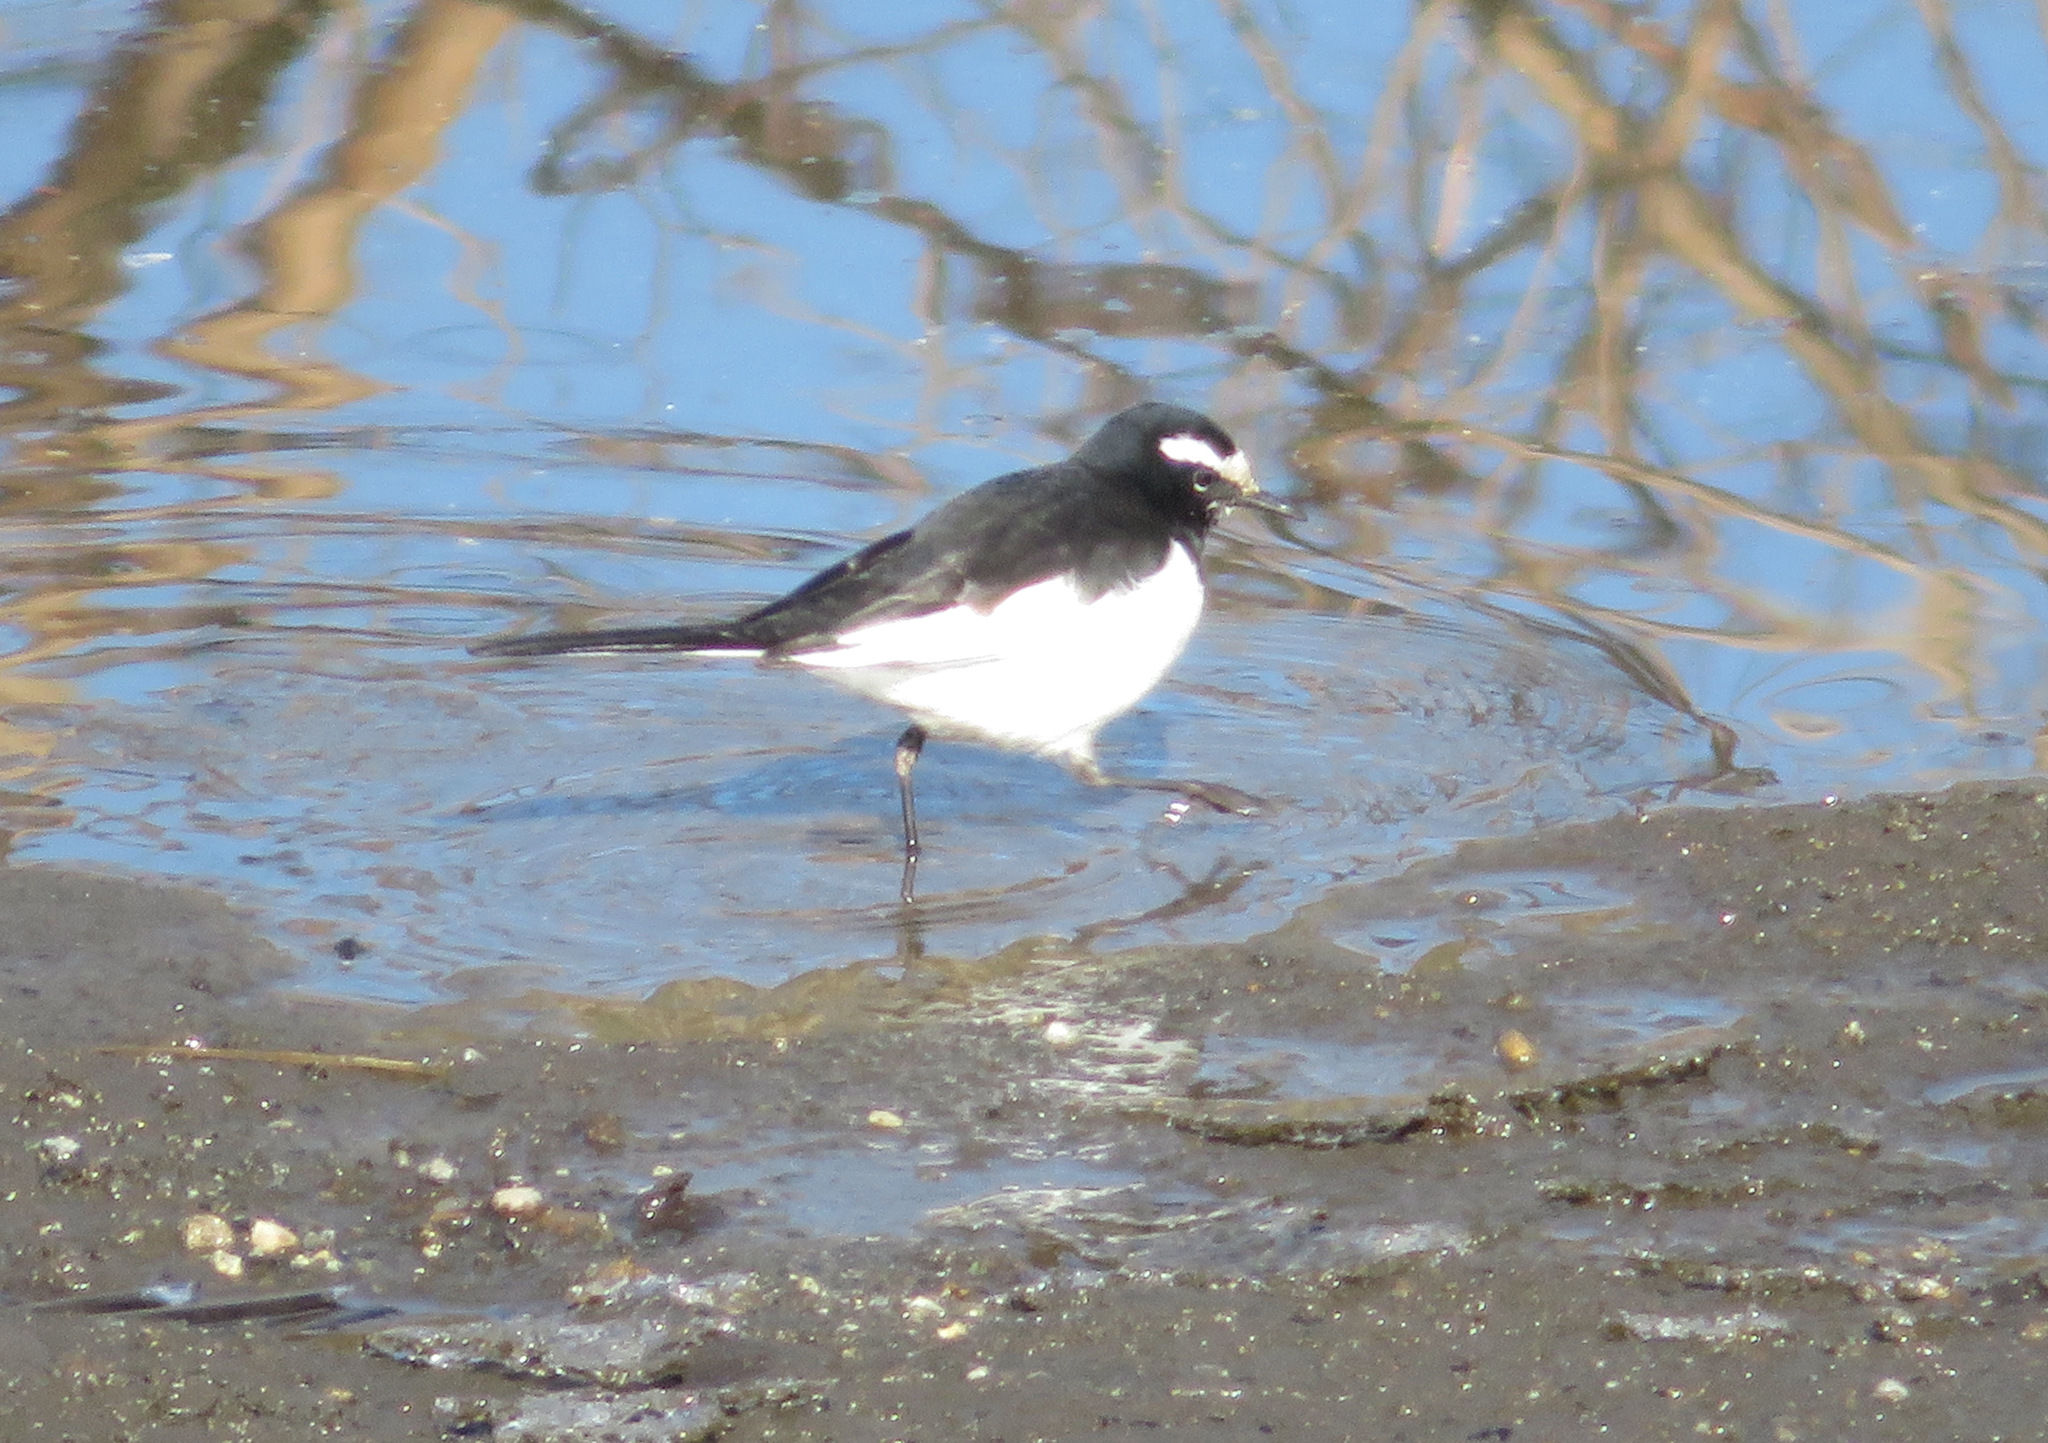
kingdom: Animalia
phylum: Chordata
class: Aves
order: Passeriformes
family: Motacillidae
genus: Motacilla
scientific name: Motacilla grandis
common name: Japanese wagtail
